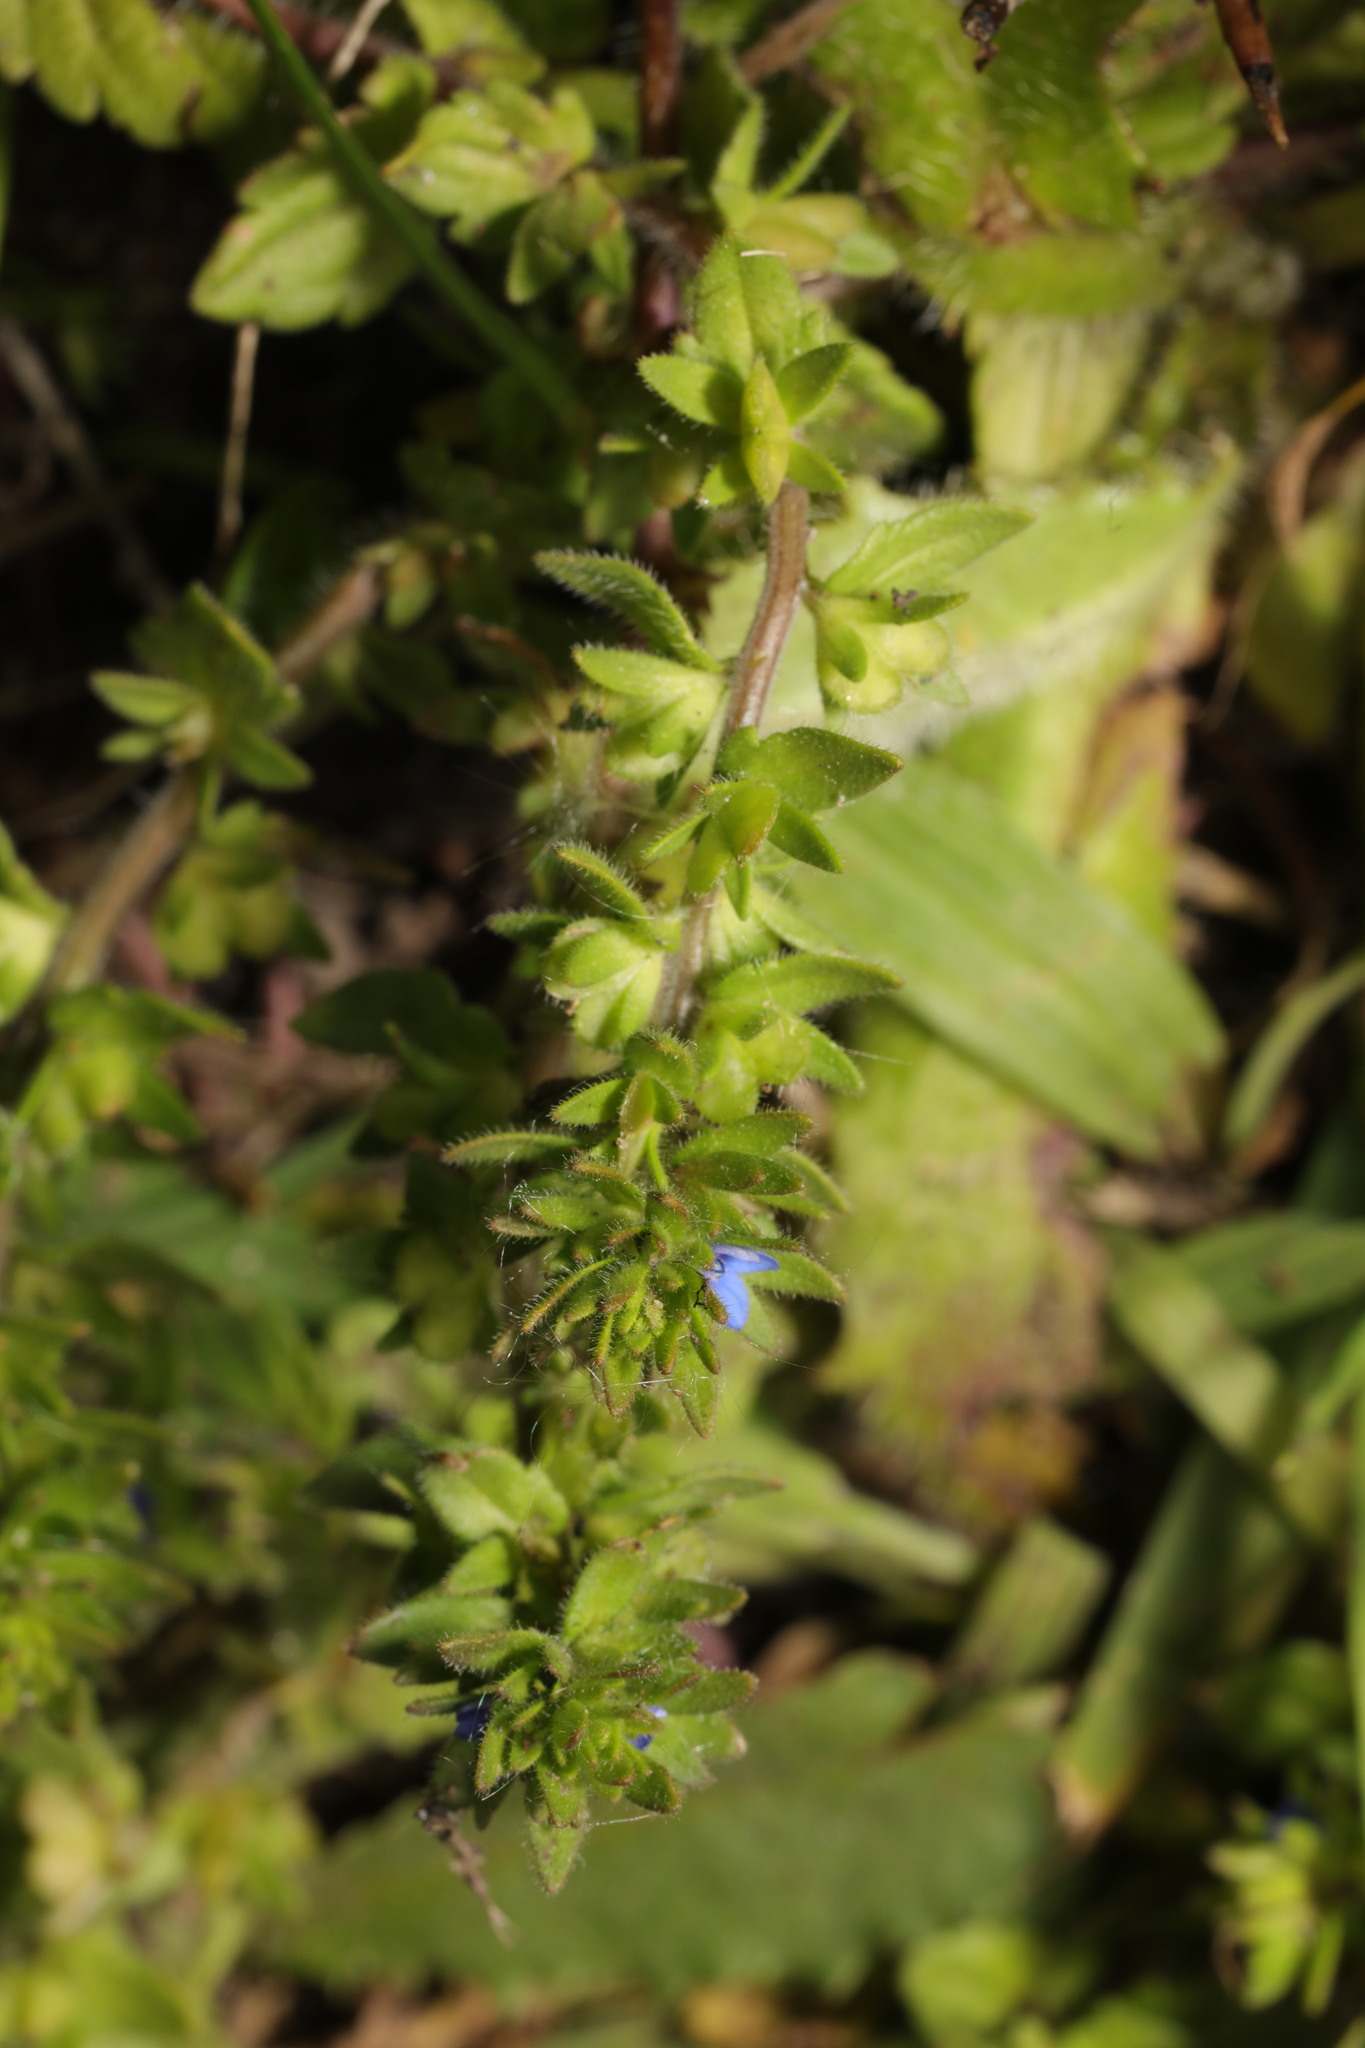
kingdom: Plantae
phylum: Tracheophyta
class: Magnoliopsida
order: Lamiales
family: Plantaginaceae
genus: Veronica
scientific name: Veronica arvensis
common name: Corn speedwell
